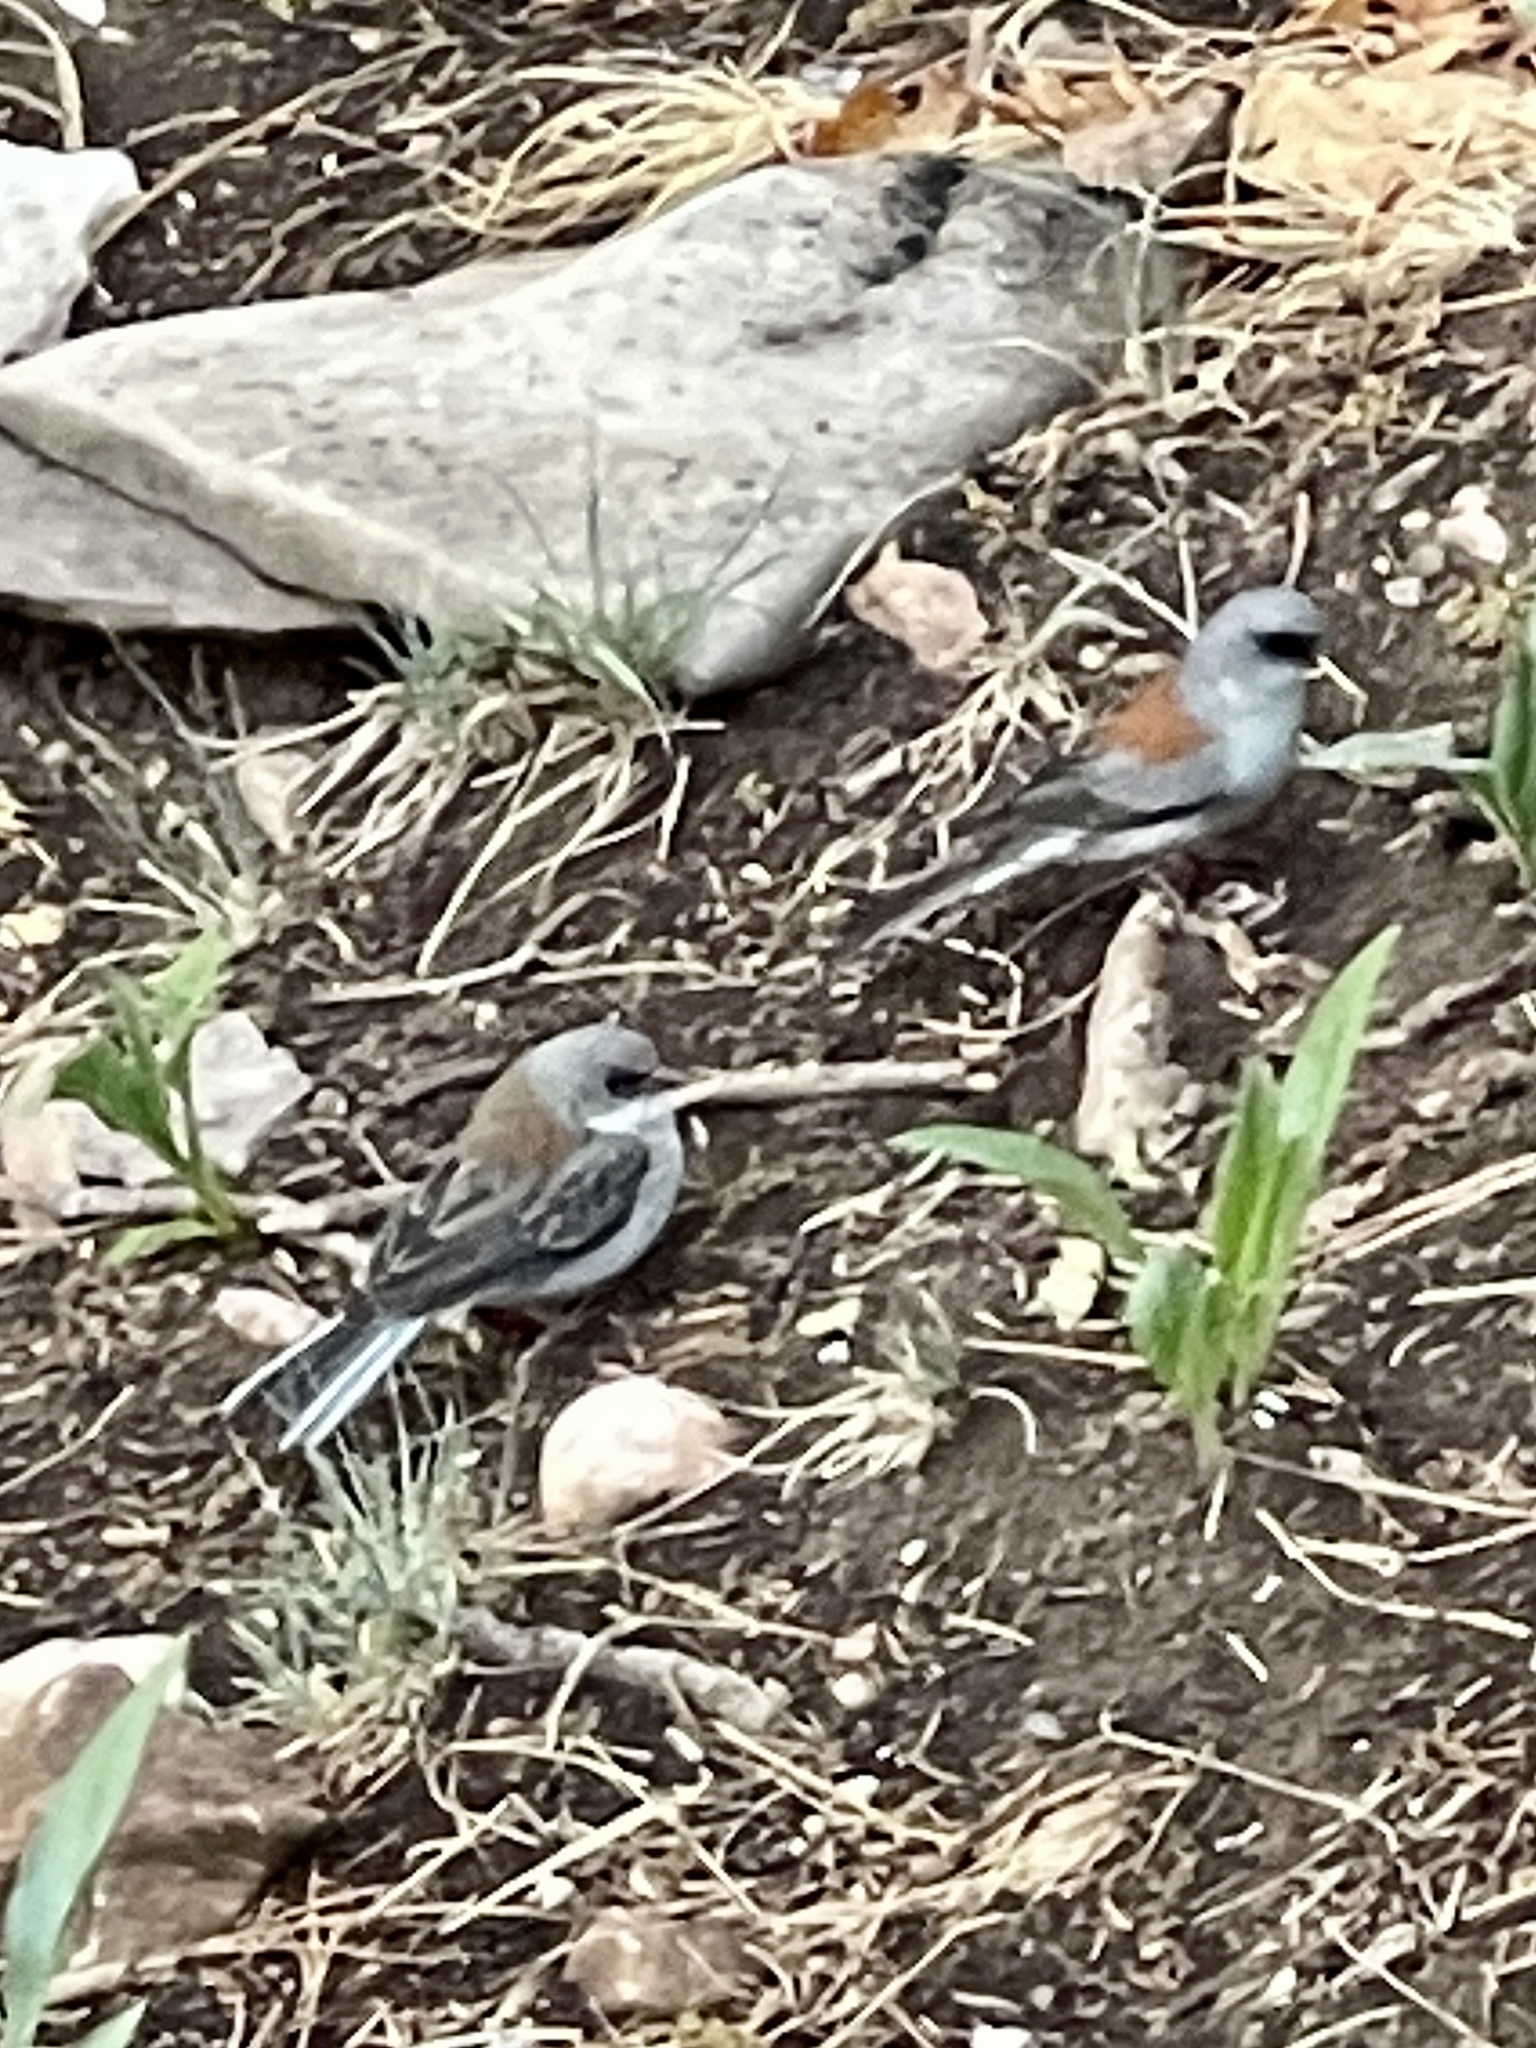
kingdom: Animalia
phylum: Chordata
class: Aves
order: Passeriformes
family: Passerellidae
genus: Junco
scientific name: Junco hyemalis
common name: Dark-eyed junco
